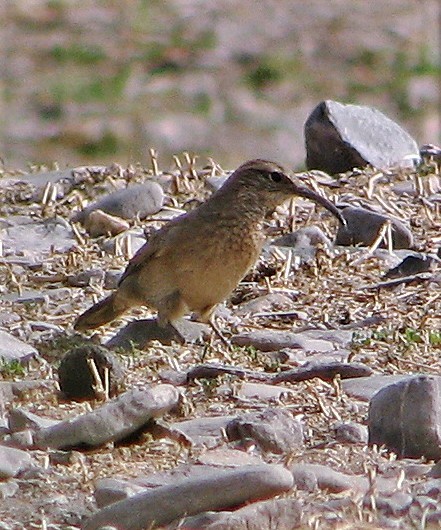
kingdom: Animalia
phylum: Chordata
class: Aves
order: Passeriformes
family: Furnariidae
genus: Upucerthia
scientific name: Upucerthia dumetaria
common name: Scale-throated earthcreeper
